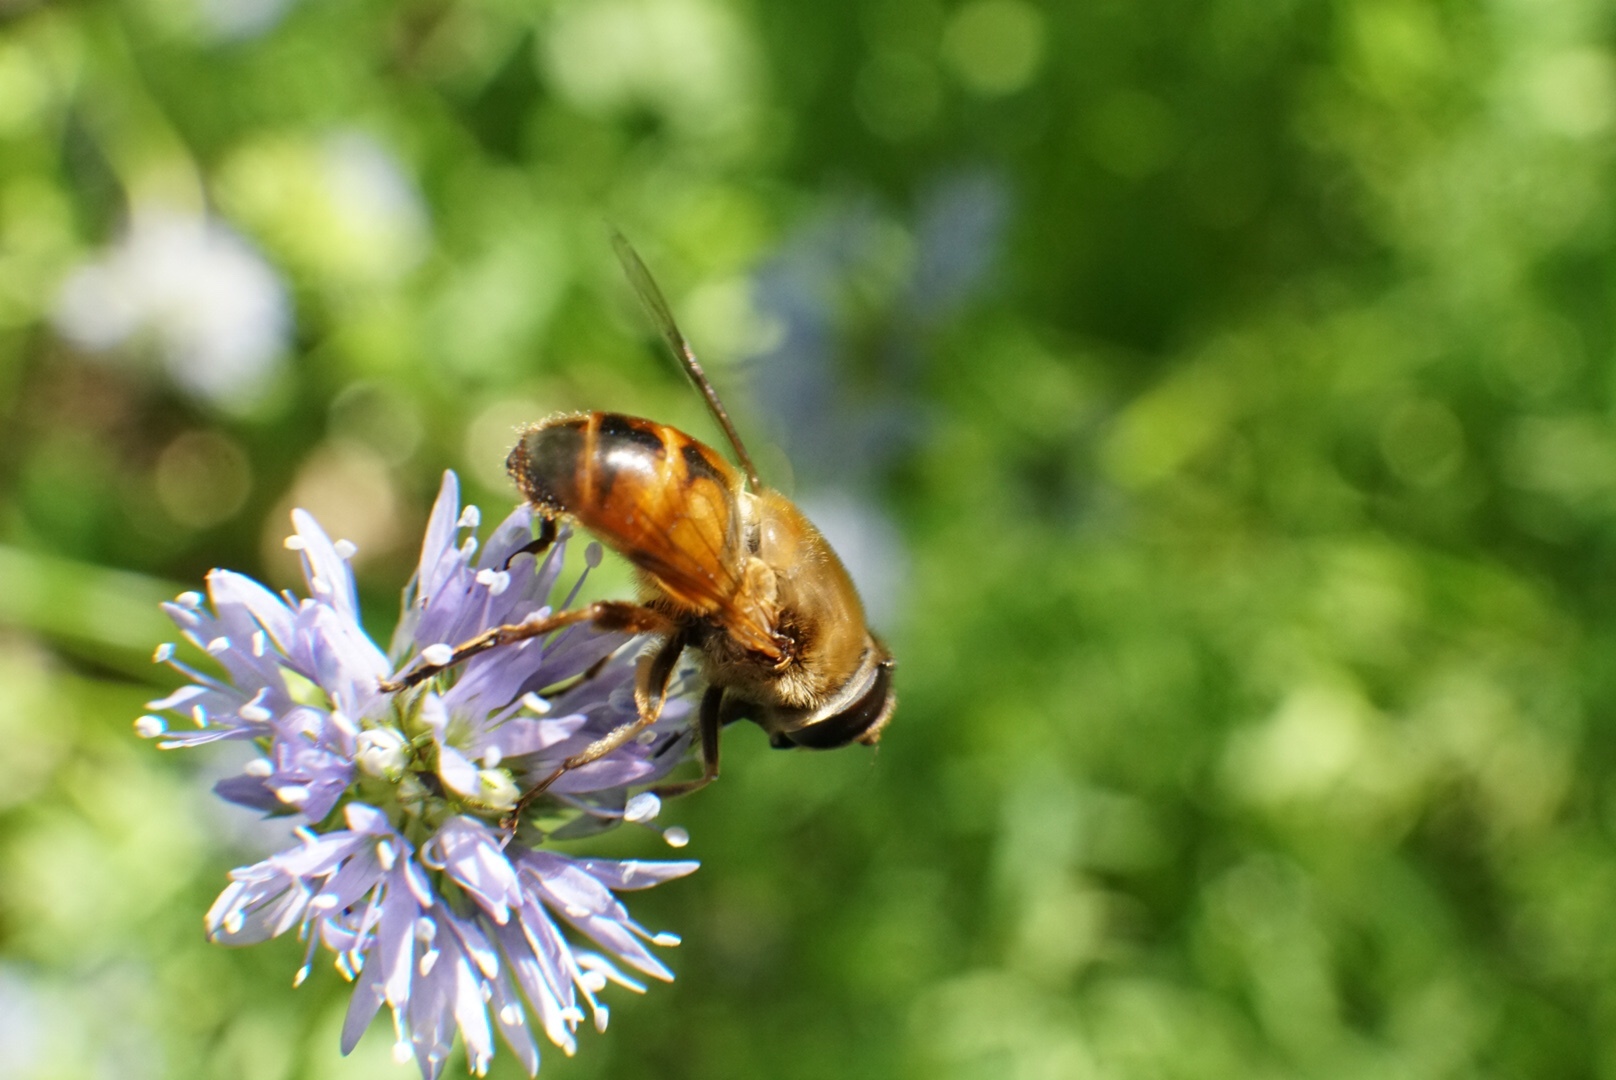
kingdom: Animalia
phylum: Arthropoda
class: Insecta
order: Diptera
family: Syrphidae
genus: Eristalis
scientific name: Eristalis tenax
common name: Drone fly
